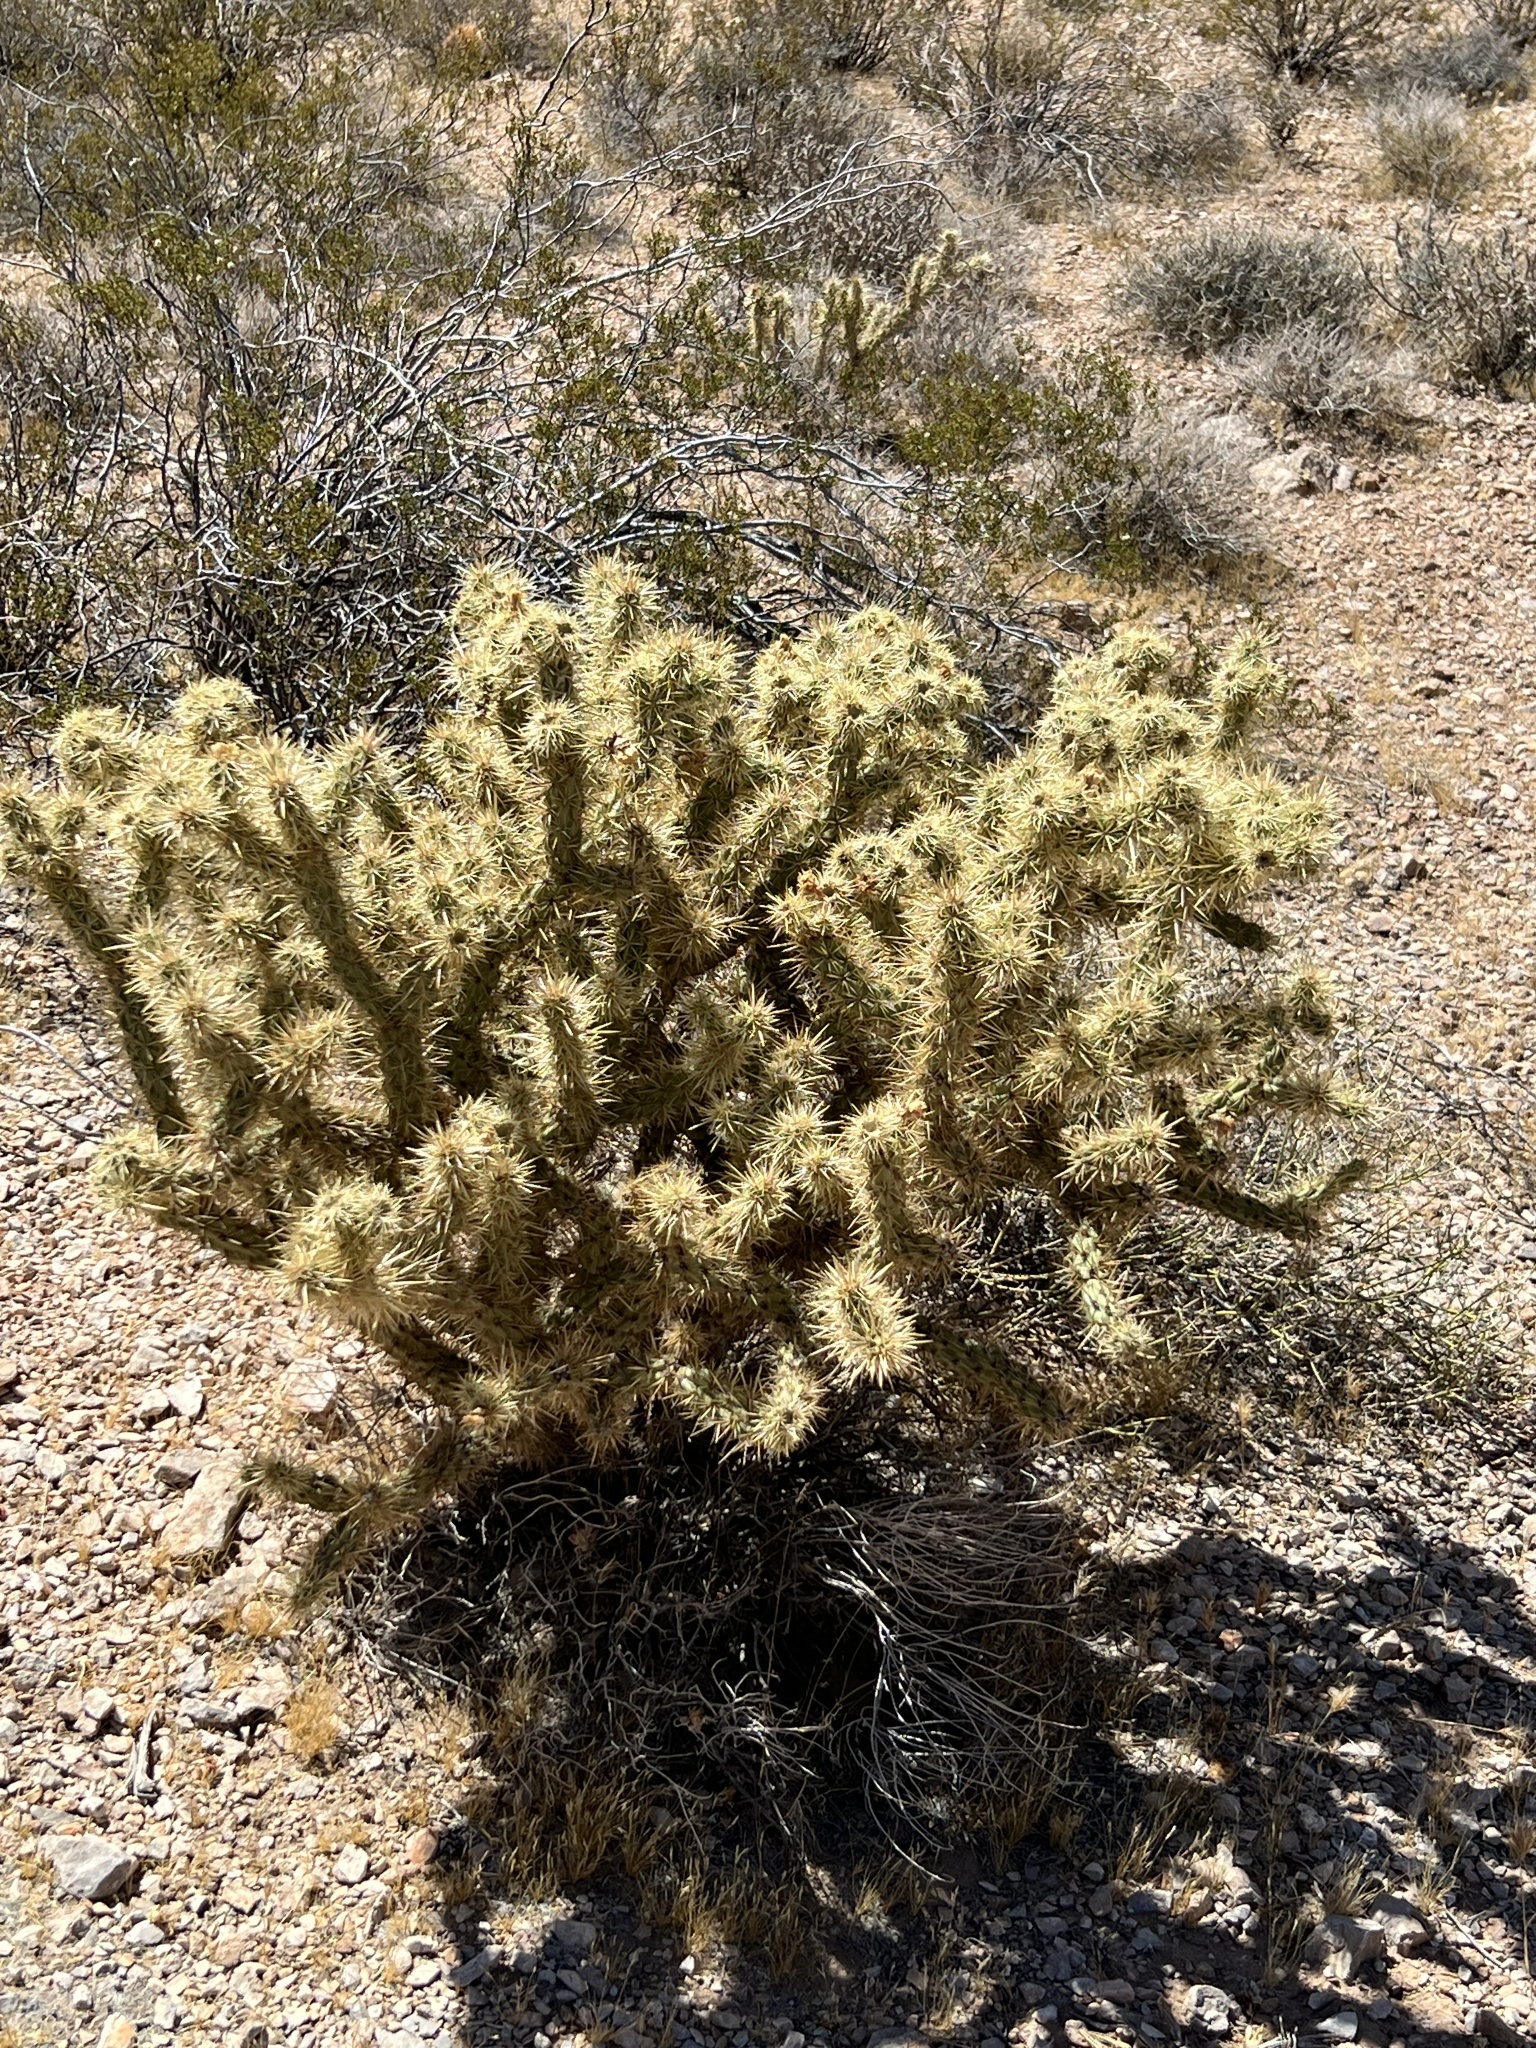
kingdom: Plantae
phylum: Tracheophyta
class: Magnoliopsida
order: Caryophyllales
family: Cactaceae
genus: Cylindropuntia
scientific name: Cylindropuntia acanthocarpa
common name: Buckhorn cholla
